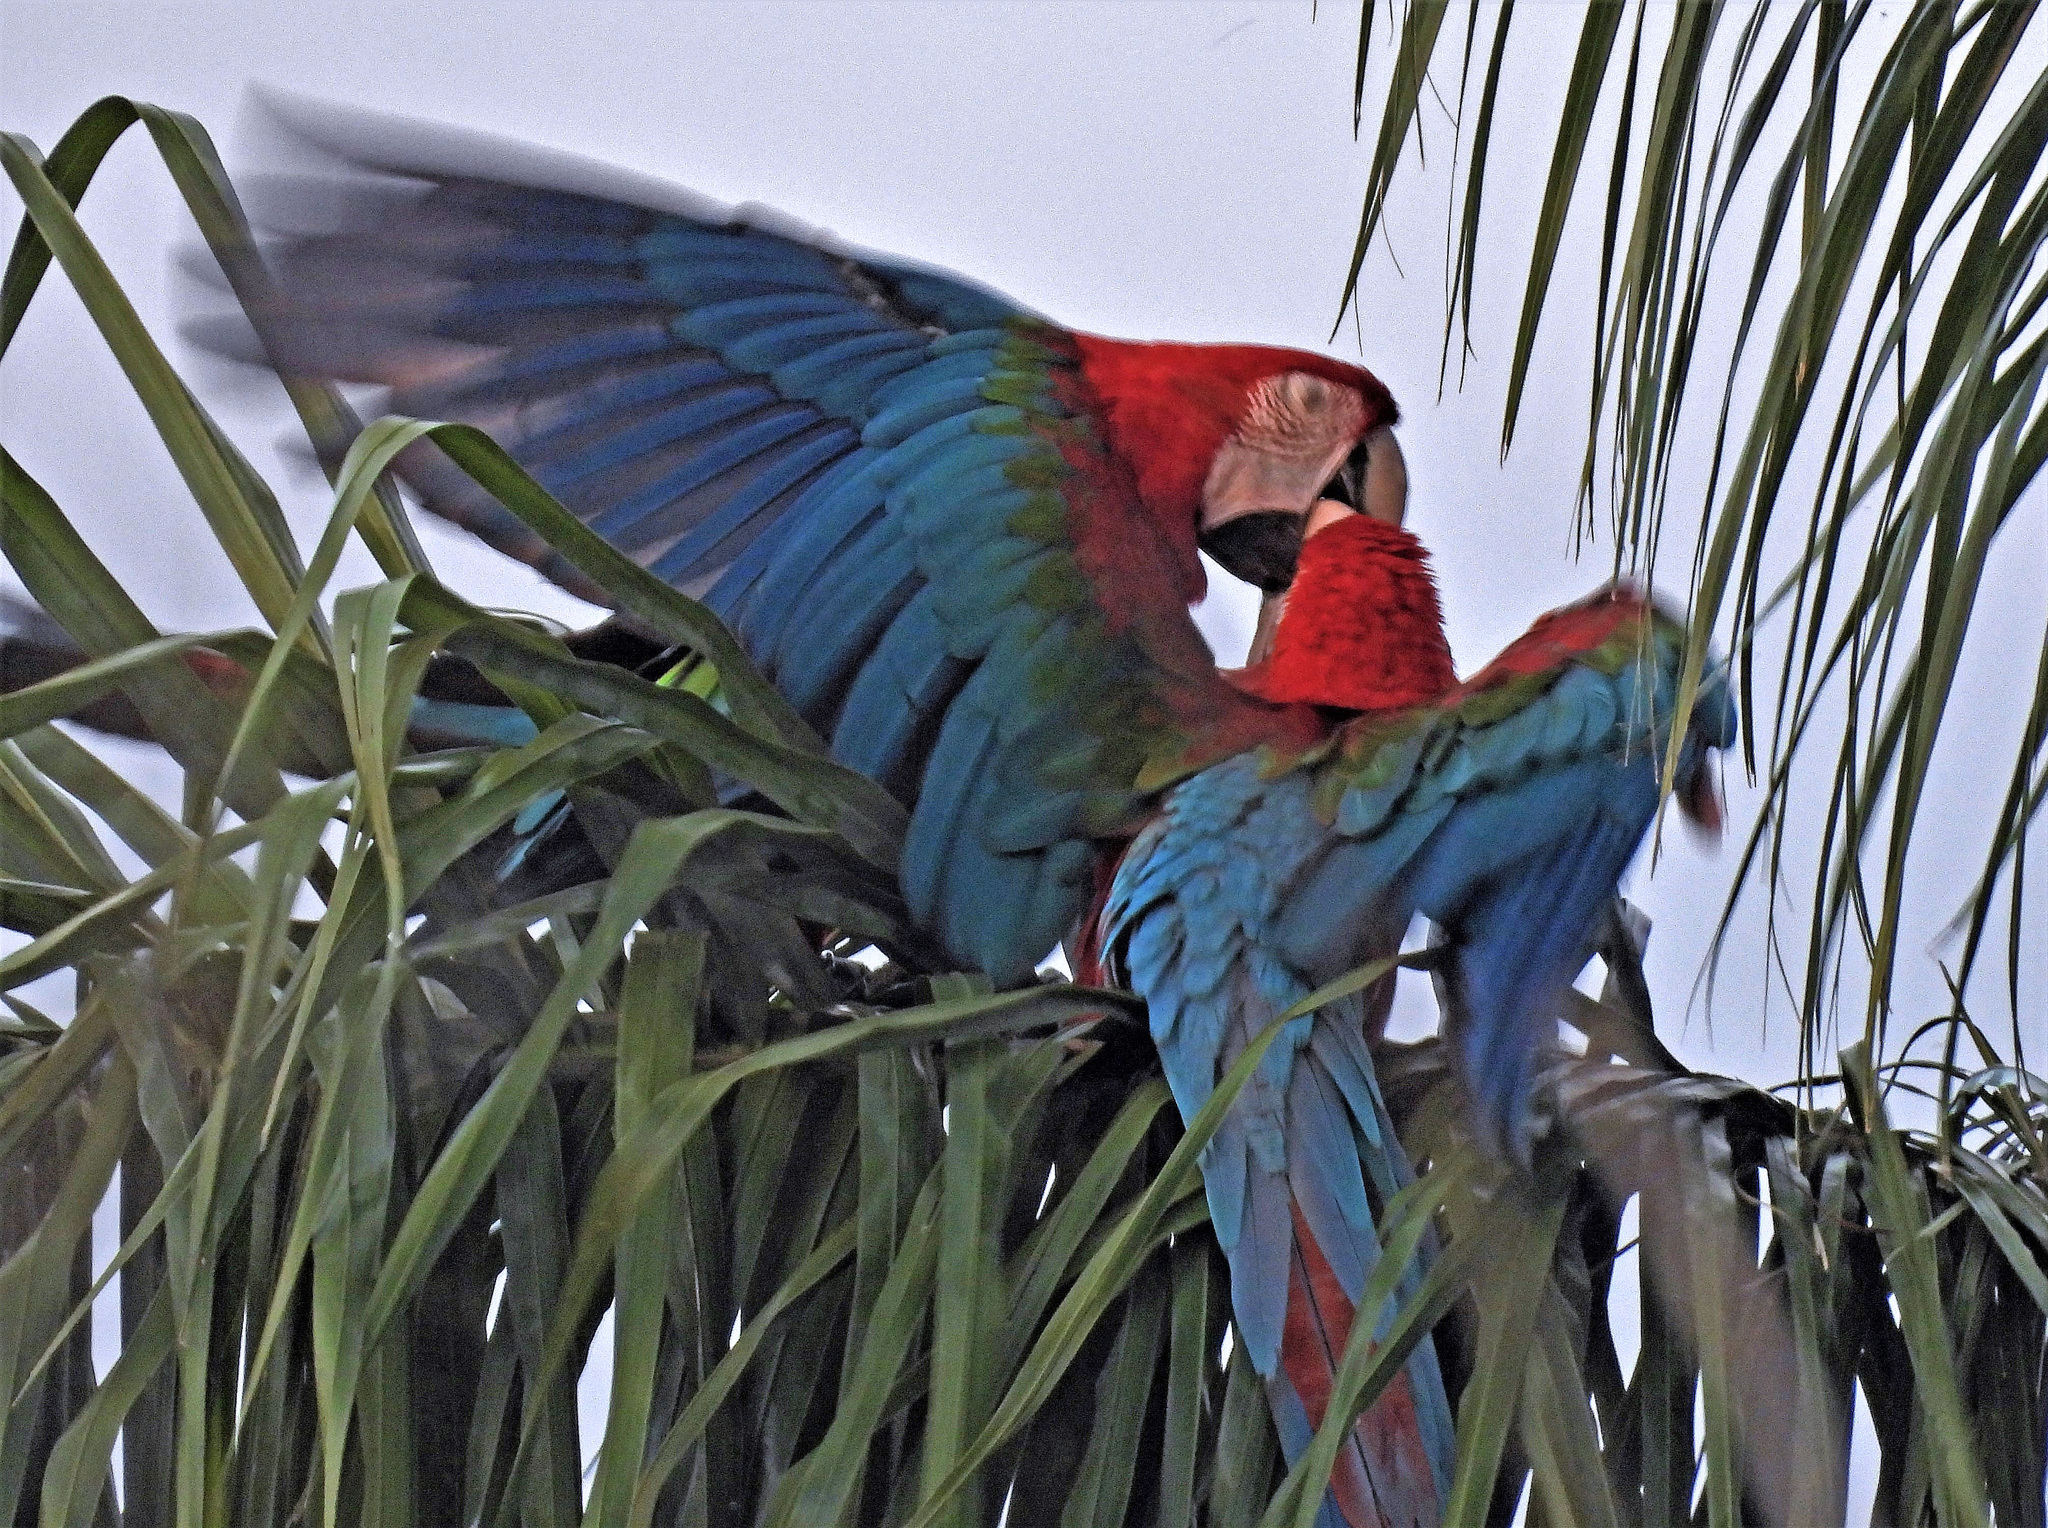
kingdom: Animalia
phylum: Chordata
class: Aves
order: Psittaciformes
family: Psittacidae
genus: Ara
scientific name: Ara chloropterus
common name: Red-and-green macaw
